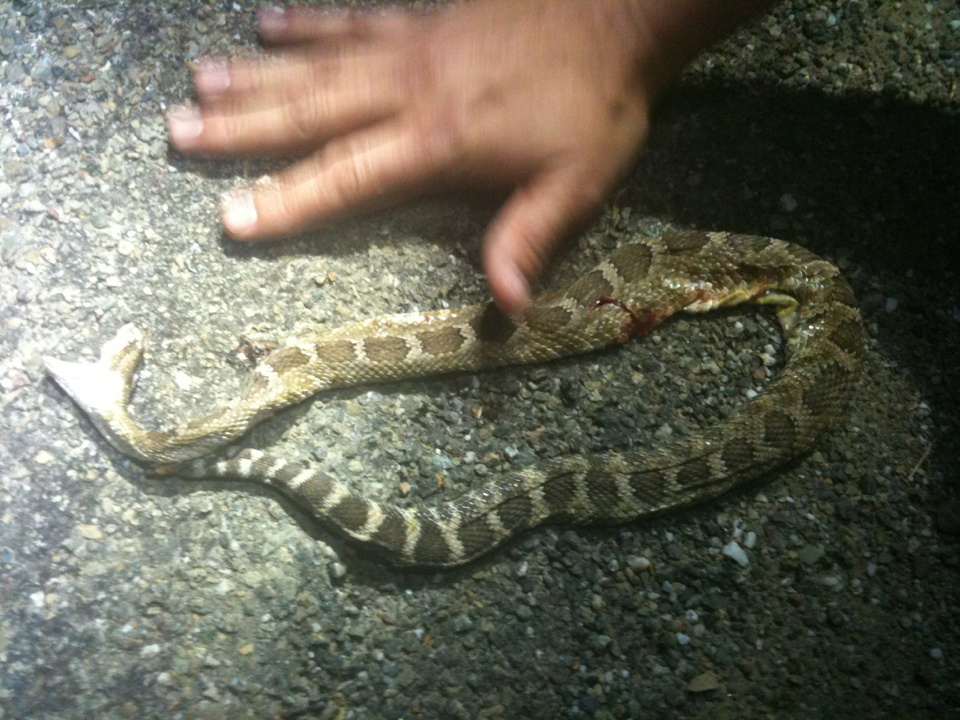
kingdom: Animalia
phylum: Chordata
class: Squamata
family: Viperidae
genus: Crotalus
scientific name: Crotalus oreganus
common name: Abyssus
